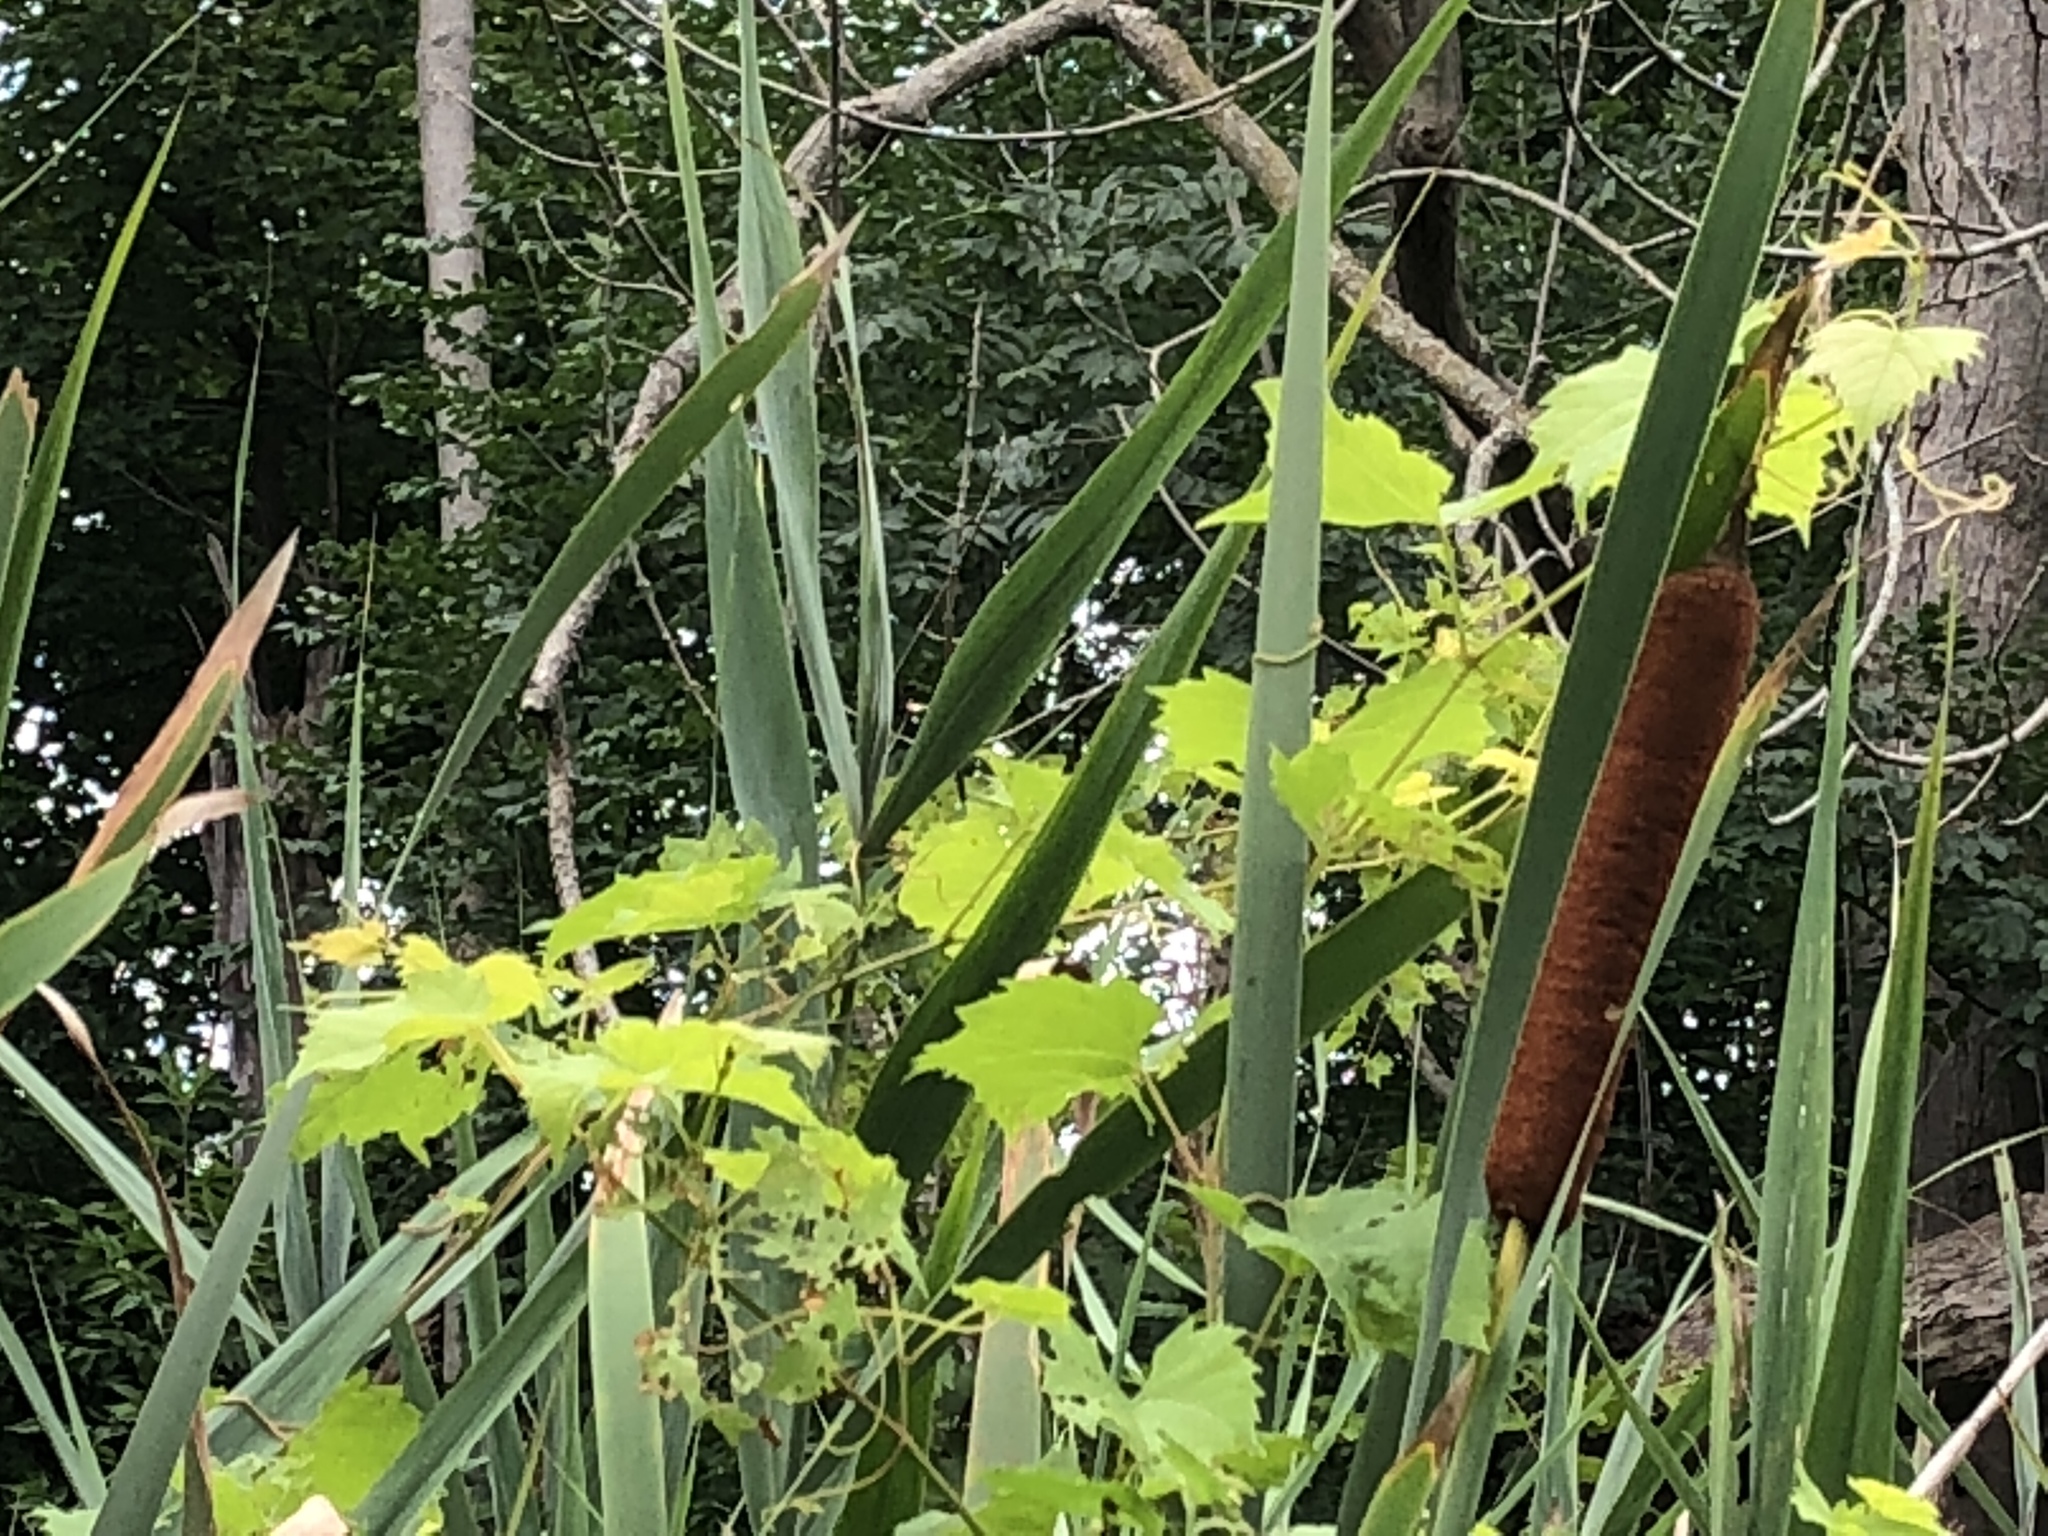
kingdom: Plantae
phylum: Tracheophyta
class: Liliopsida
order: Poales
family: Typhaceae
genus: Typha
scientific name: Typha latifolia
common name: Broadleaf cattail
